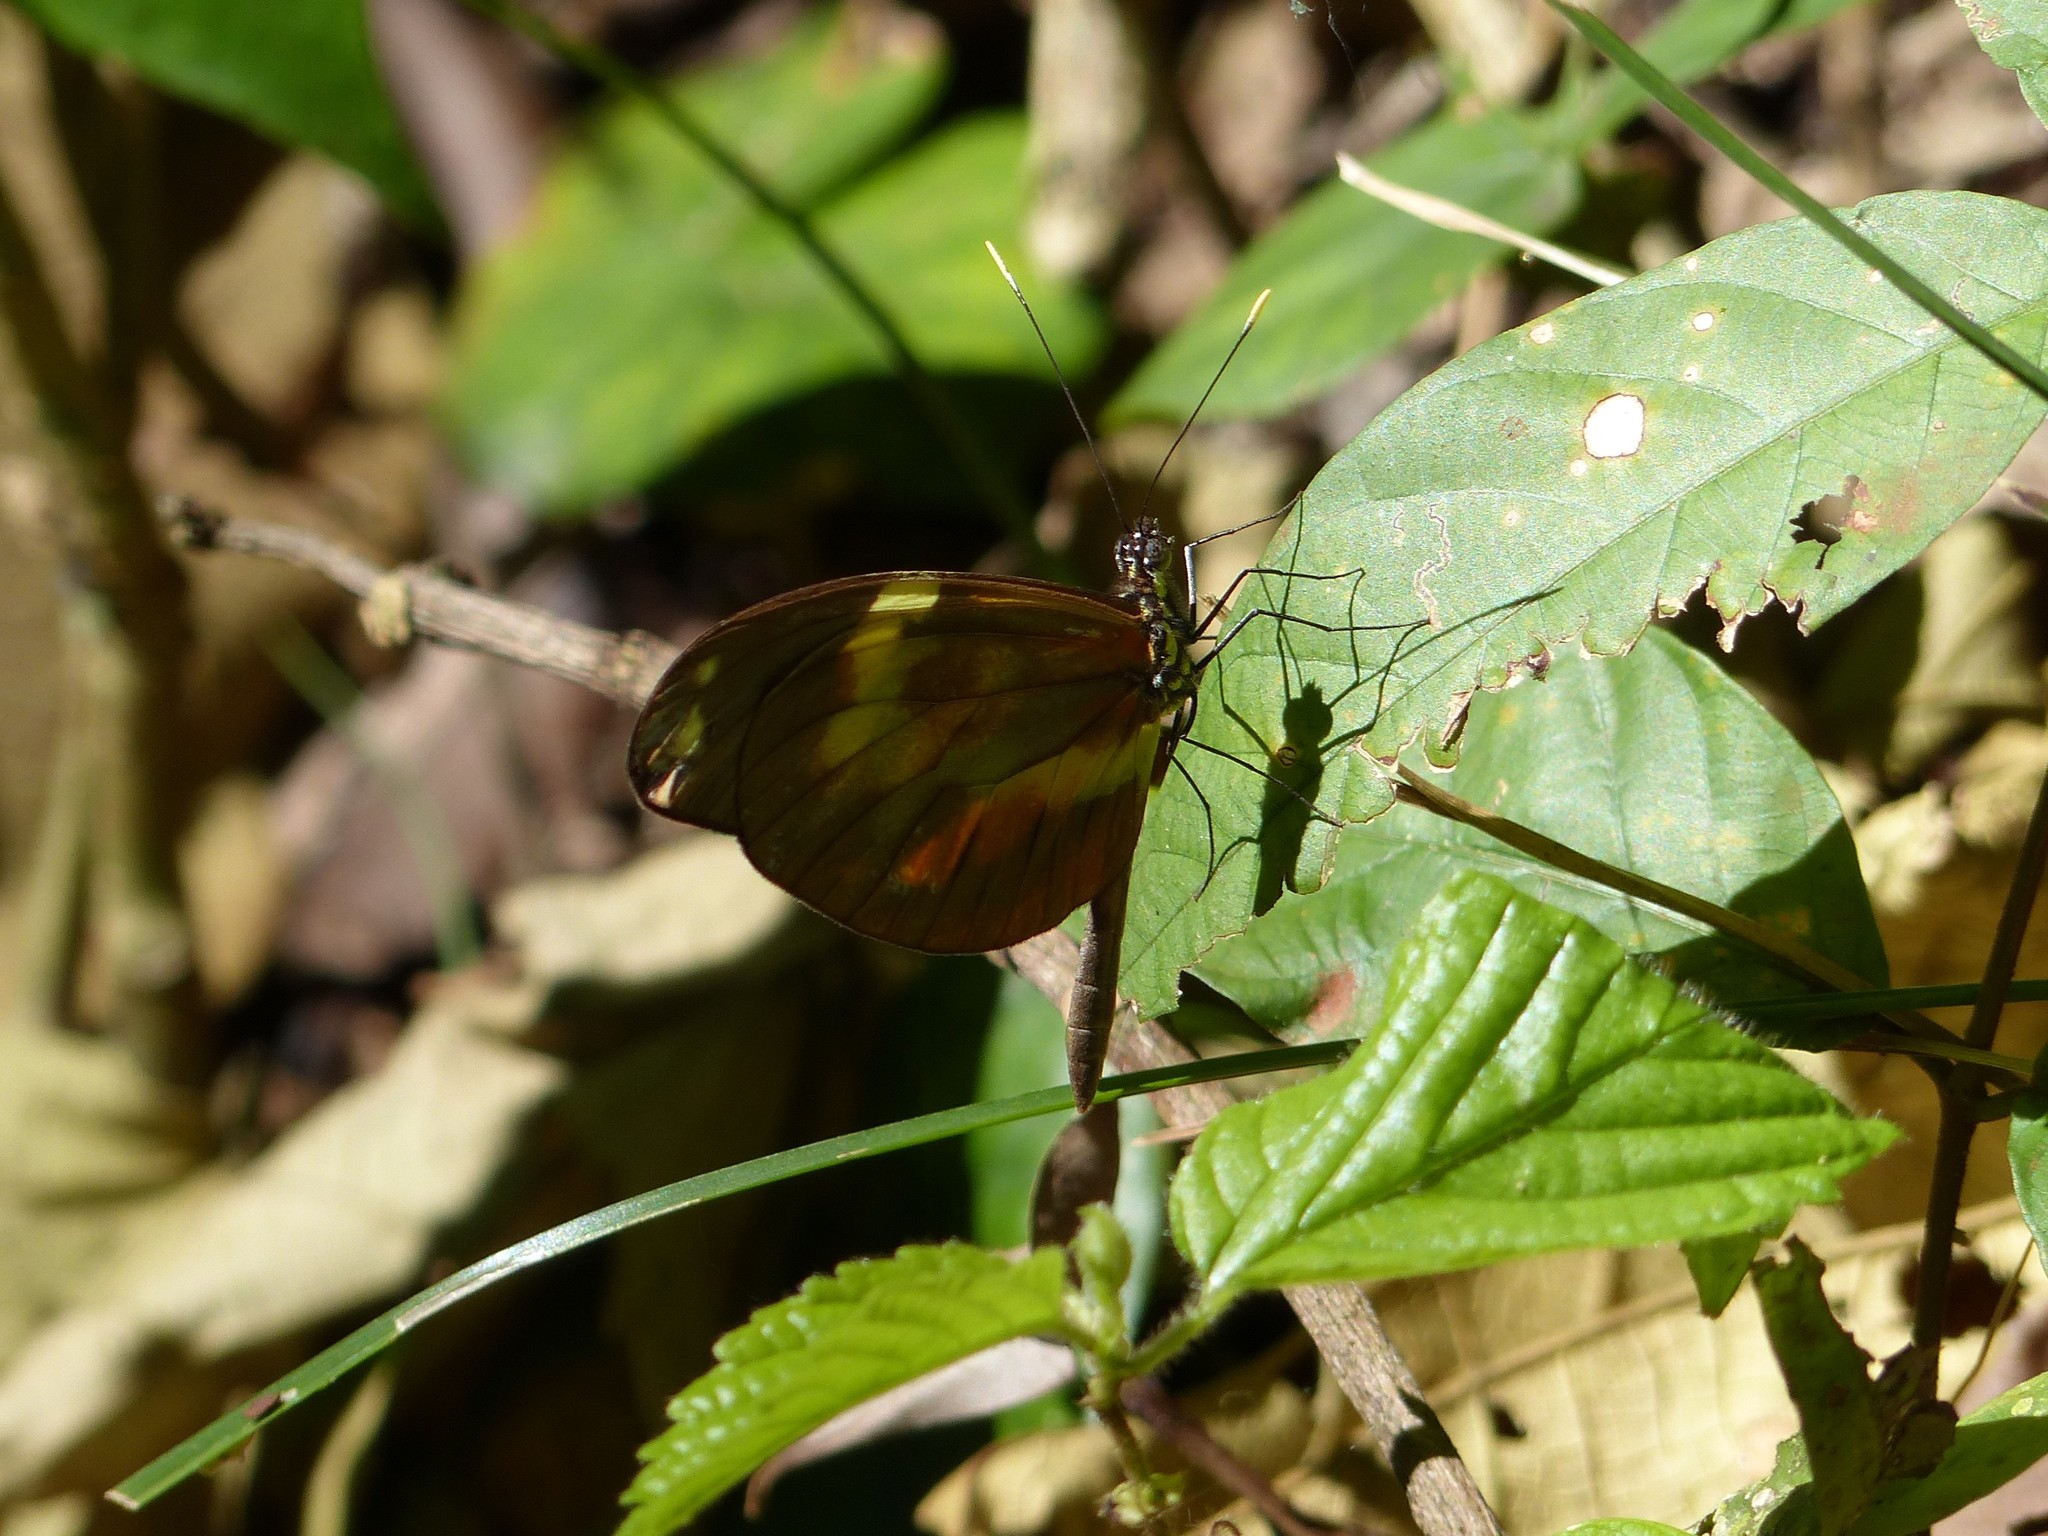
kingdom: Animalia
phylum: Arthropoda
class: Insecta
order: Lepidoptera
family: Pieridae
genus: Dismorphia
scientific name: Dismorphia amphione
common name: Tiger mimic-white
